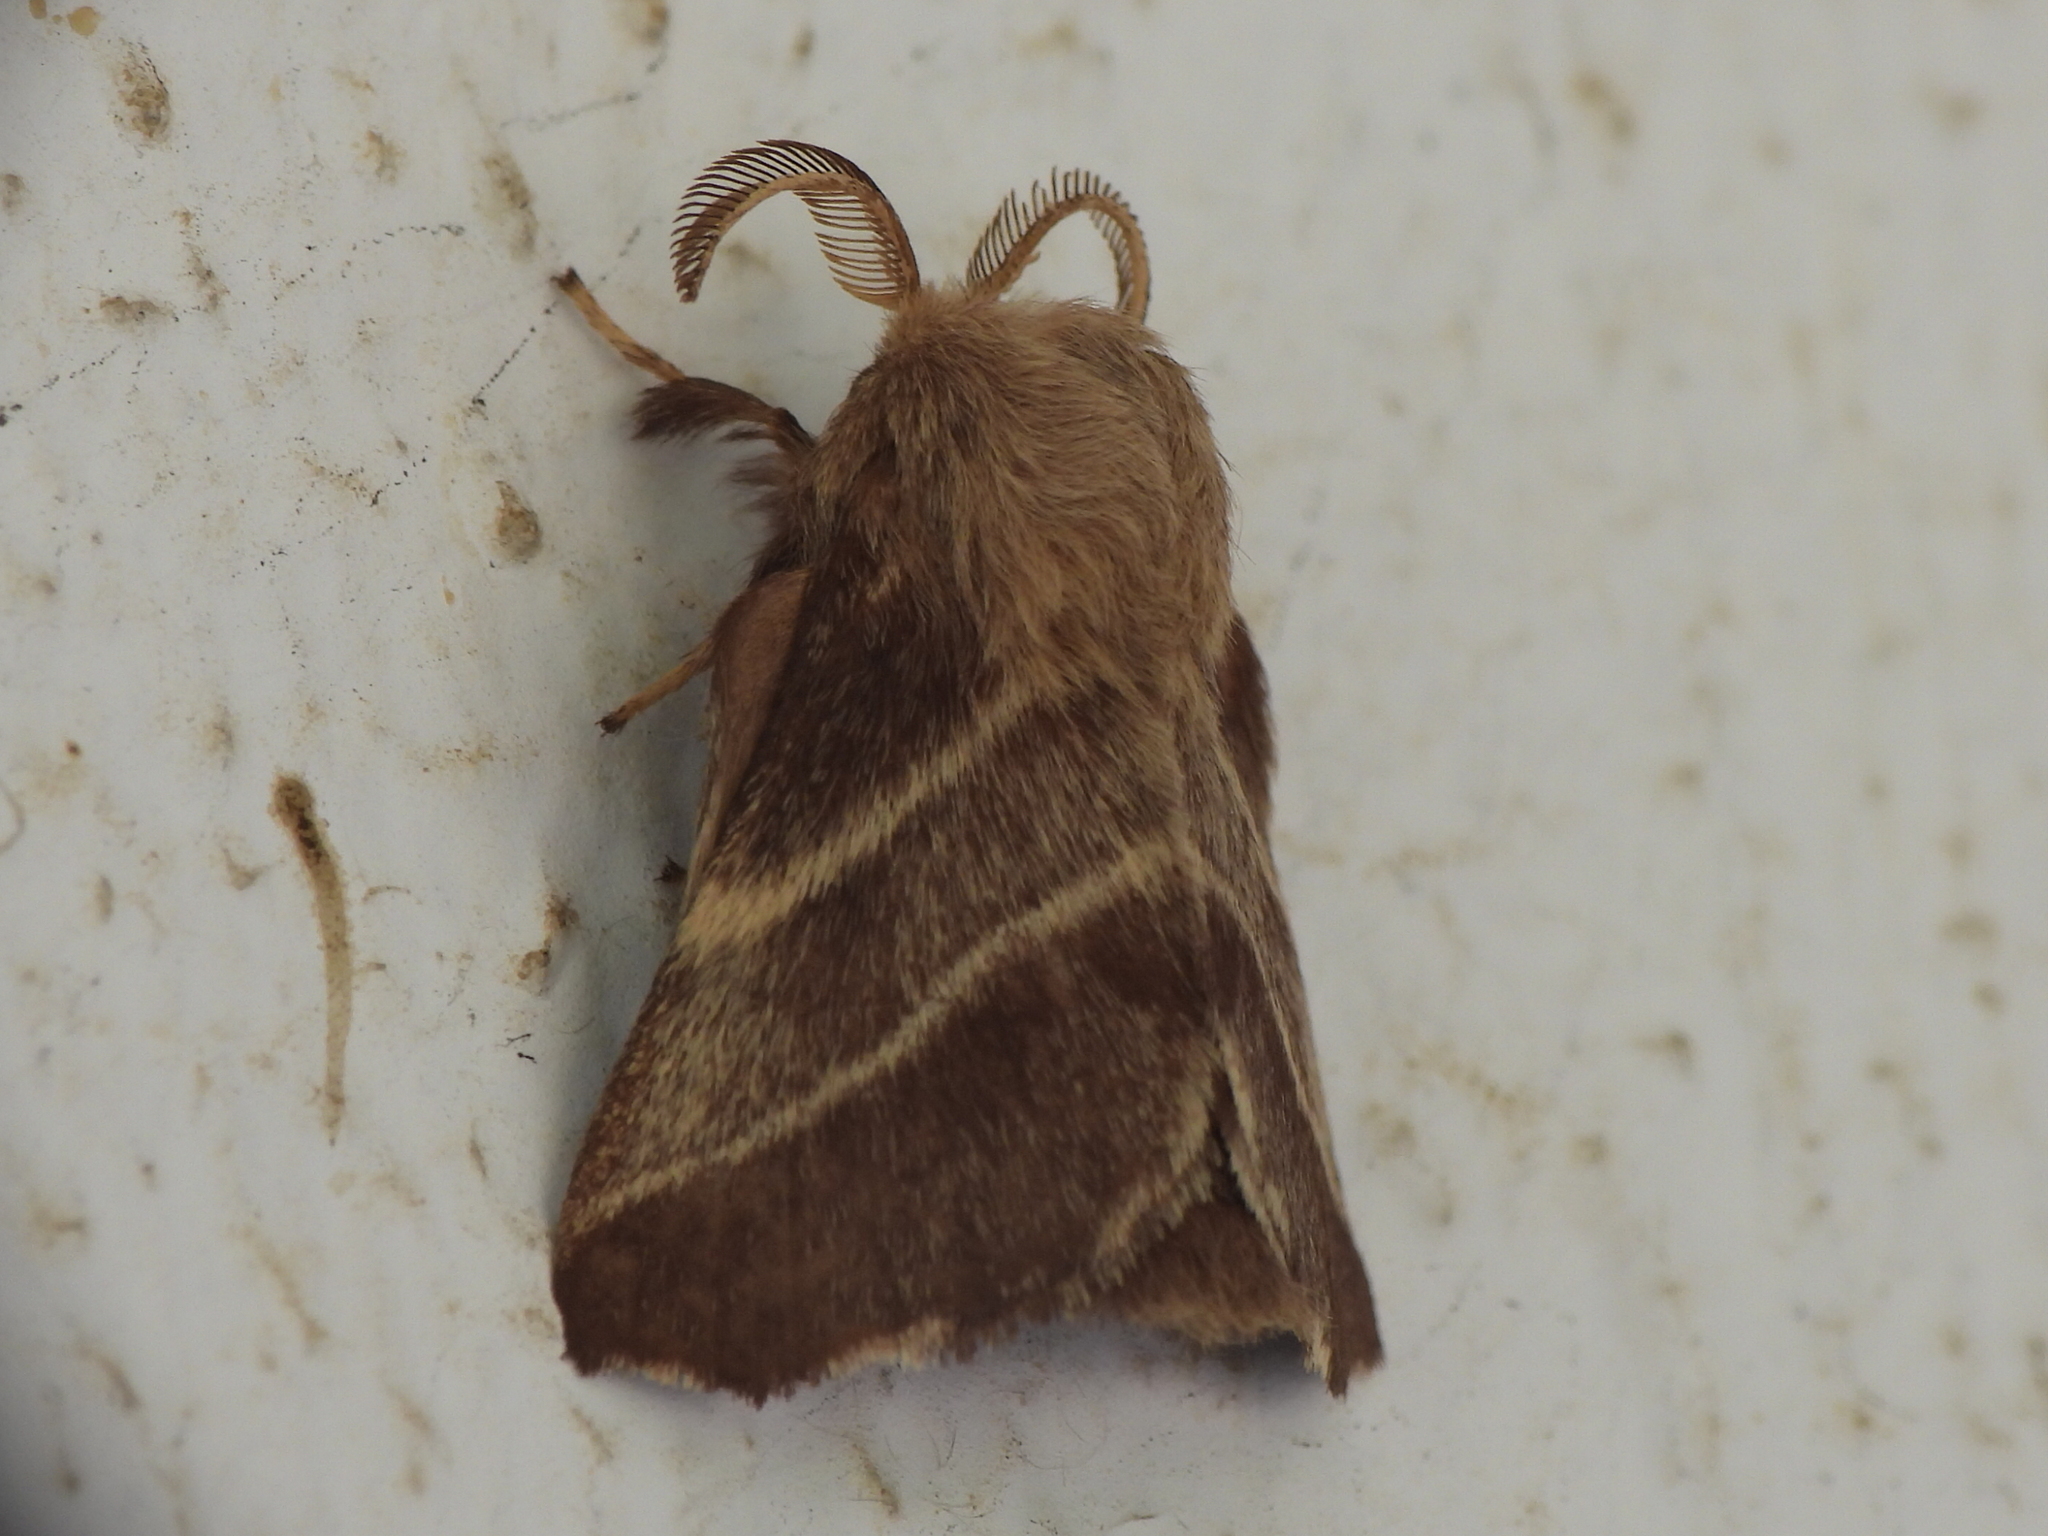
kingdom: Animalia
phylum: Arthropoda
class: Insecta
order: Lepidoptera
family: Lasiocampidae
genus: Malacosoma
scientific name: Malacosoma americana
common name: Eastern tent caterpillar moth
